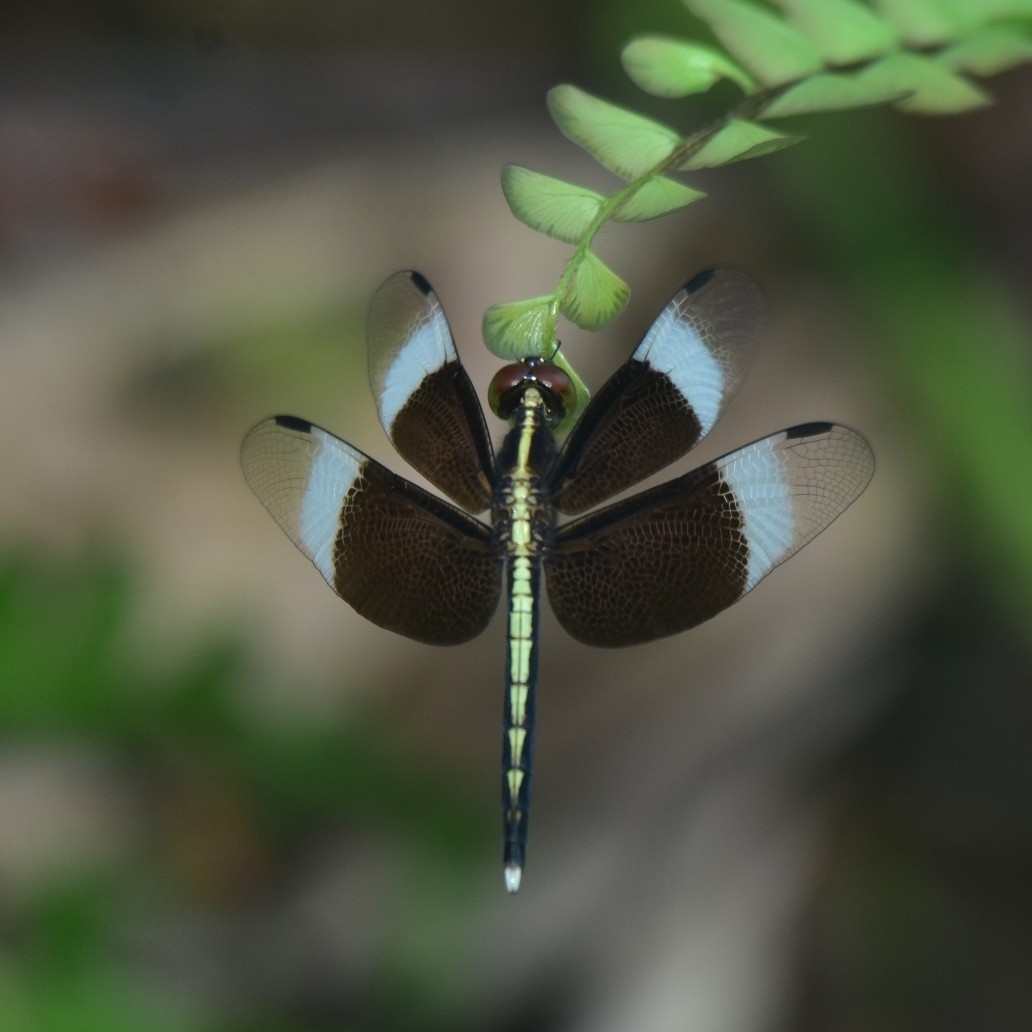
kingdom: Animalia
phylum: Arthropoda
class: Insecta
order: Odonata
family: Libellulidae
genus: Neurothemis
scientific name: Neurothemis tullia
